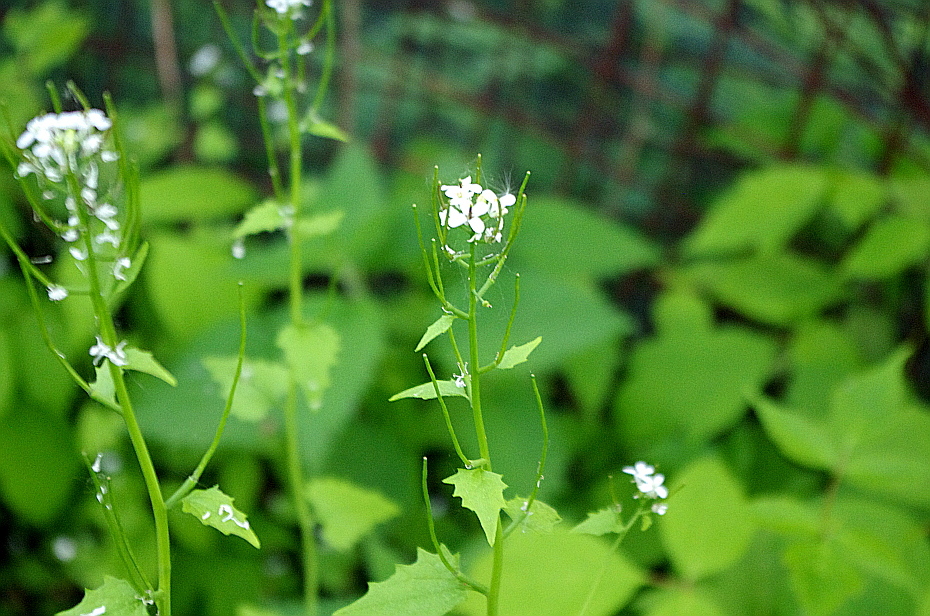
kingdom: Plantae
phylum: Tracheophyta
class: Magnoliopsida
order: Brassicales
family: Brassicaceae
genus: Alliaria
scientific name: Alliaria petiolata
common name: Garlic mustard
